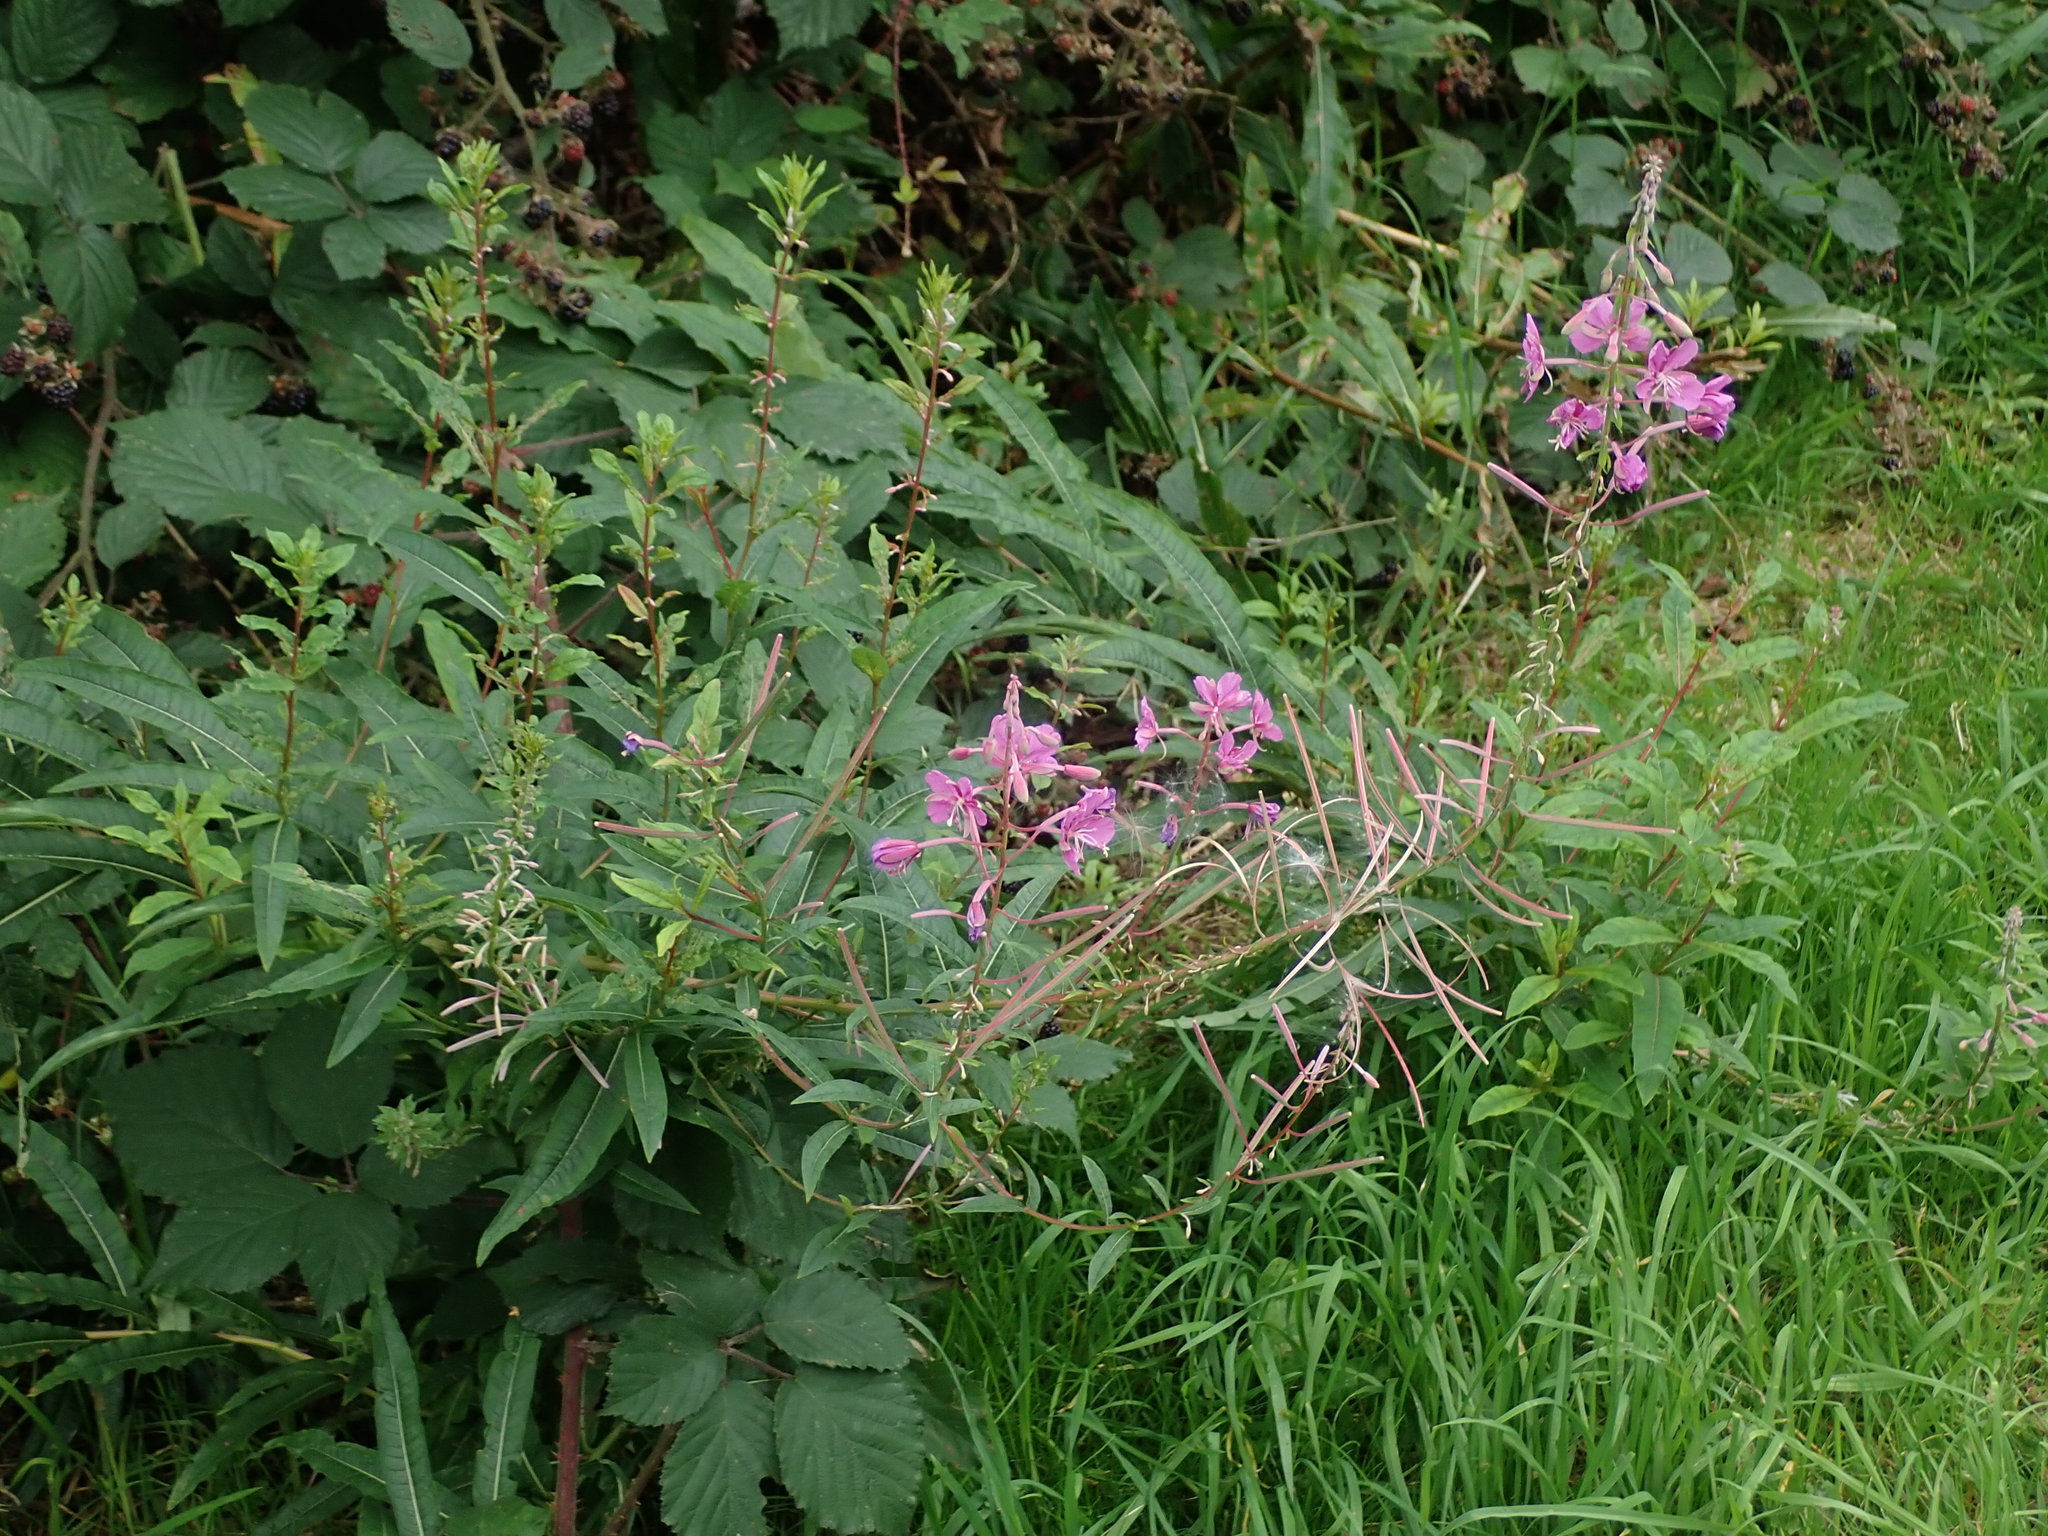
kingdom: Plantae
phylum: Tracheophyta
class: Magnoliopsida
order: Myrtales
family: Onagraceae
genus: Chamaenerion
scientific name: Chamaenerion angustifolium
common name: Fireweed
